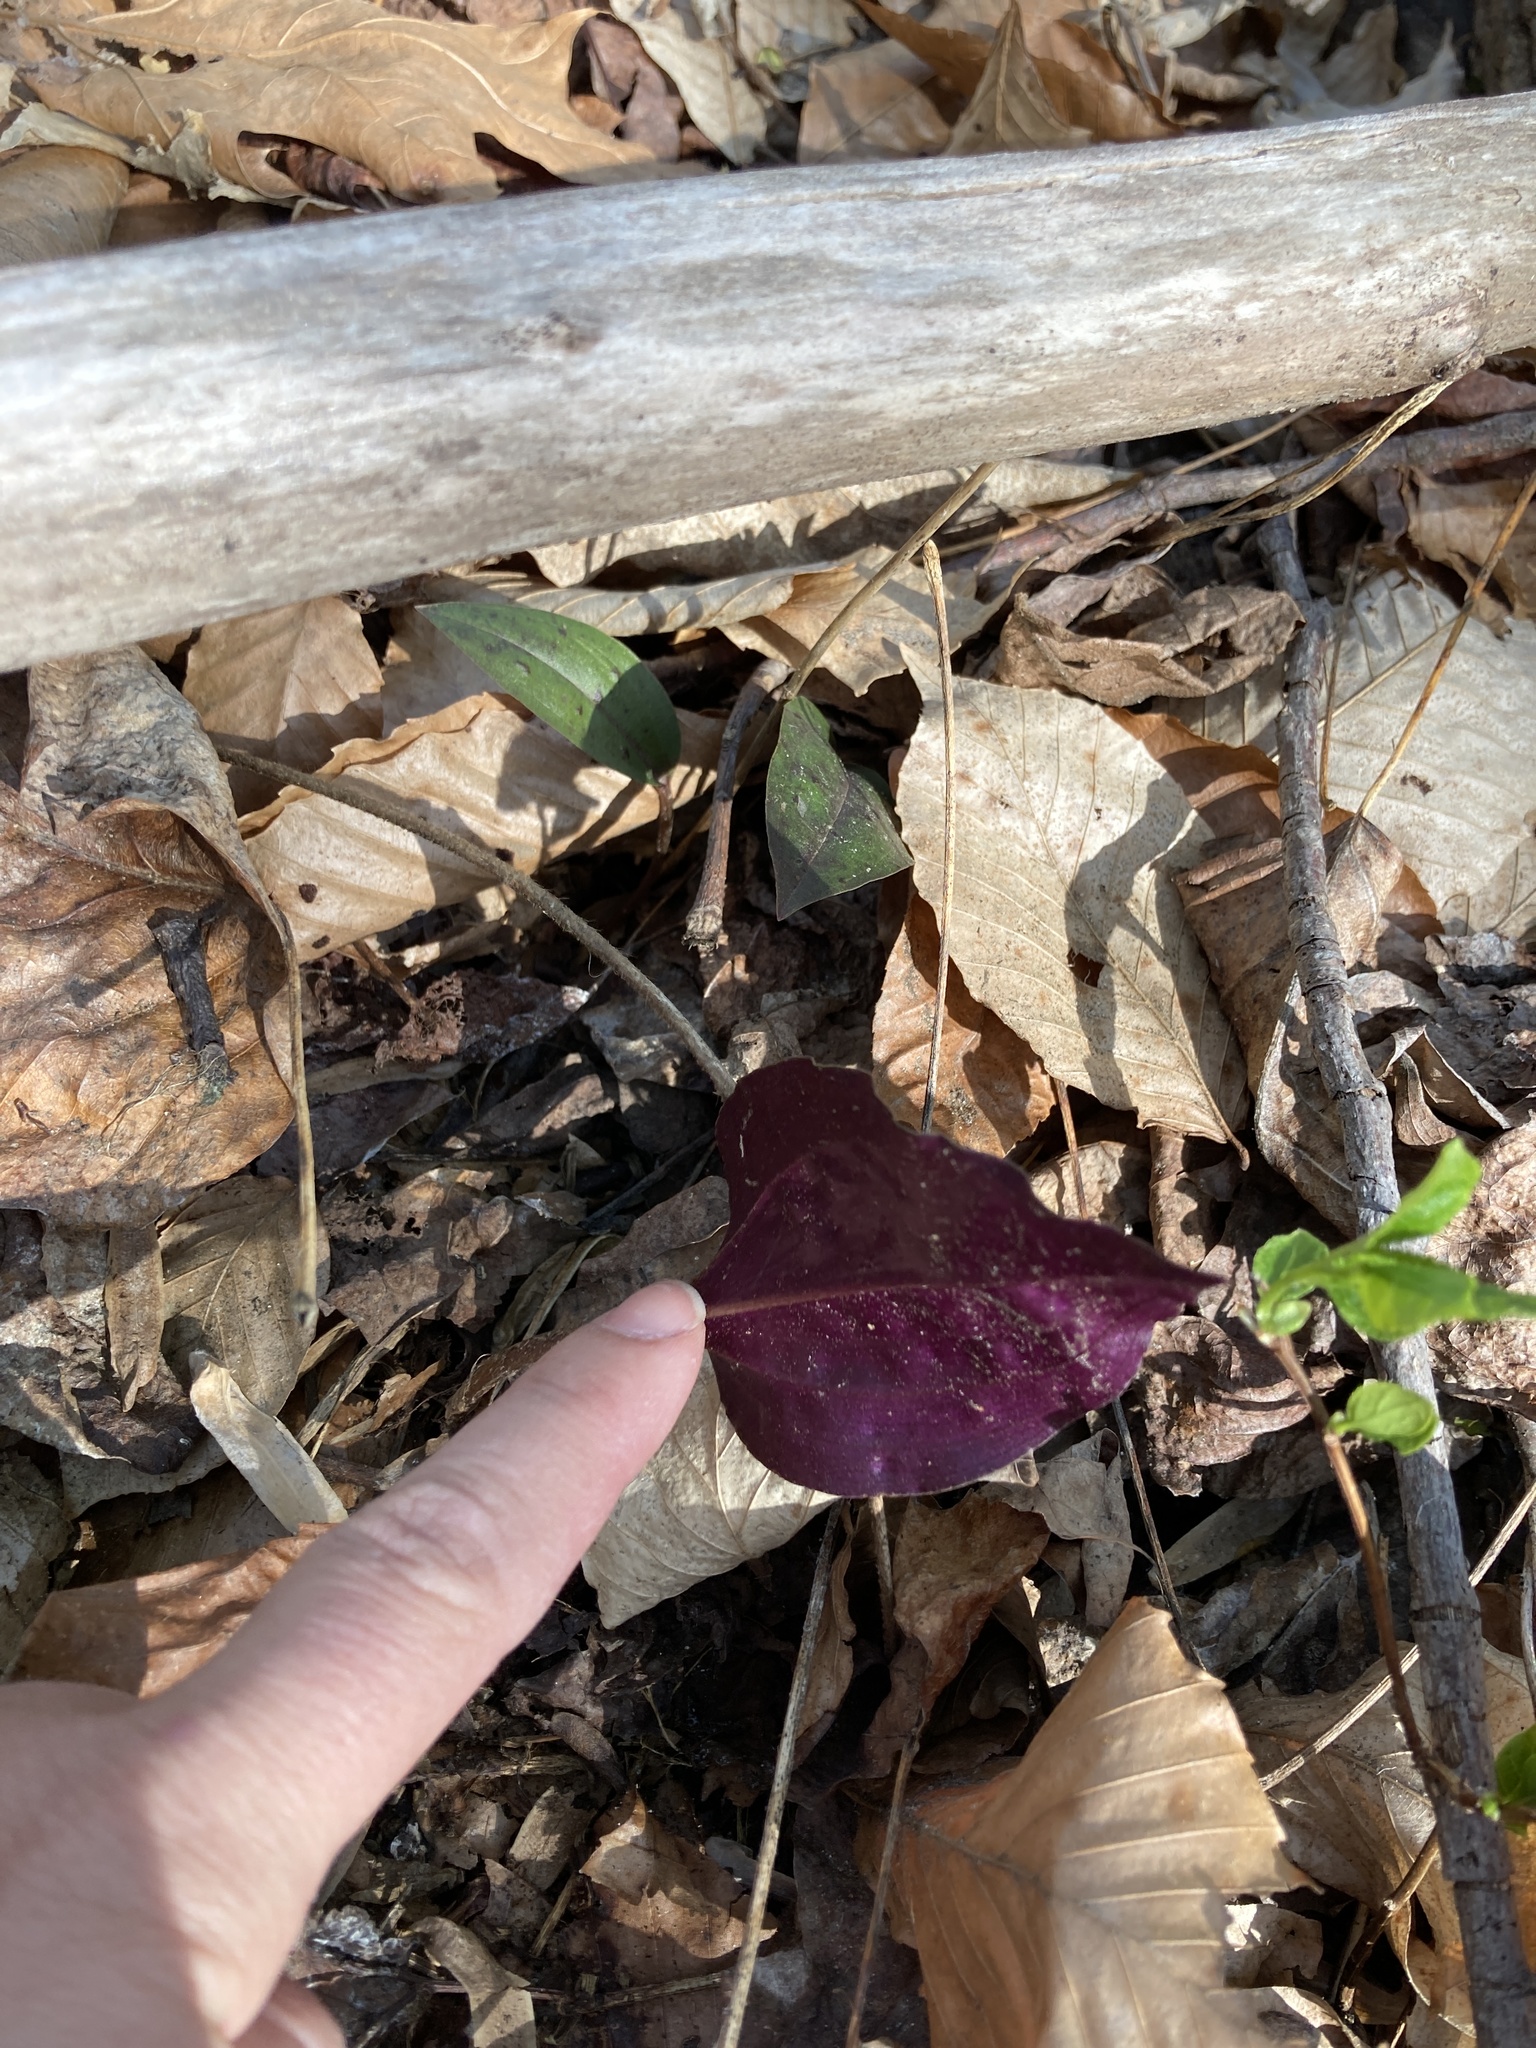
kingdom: Plantae
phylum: Tracheophyta
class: Liliopsida
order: Asparagales
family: Orchidaceae
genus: Tipularia
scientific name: Tipularia discolor
